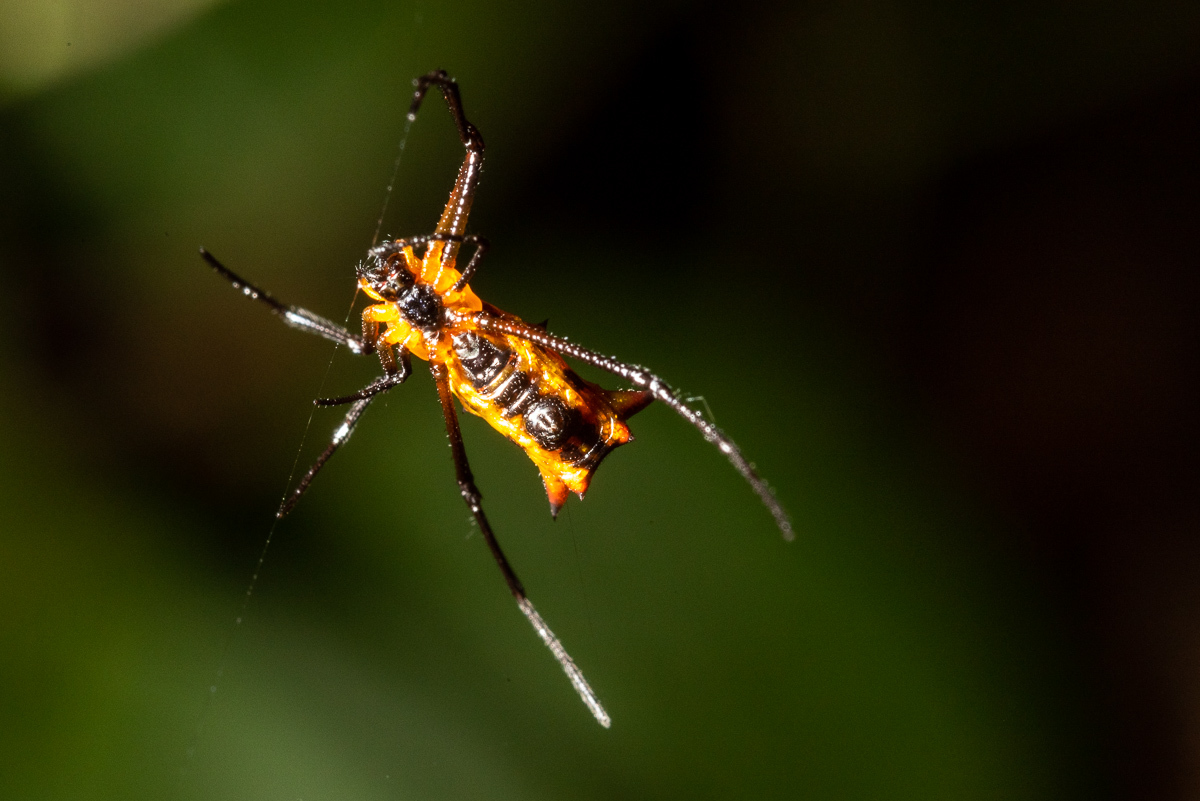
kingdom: Animalia
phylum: Arthropoda
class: Arachnida
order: Araneae
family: Araneidae
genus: Micrathena
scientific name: Micrathena
